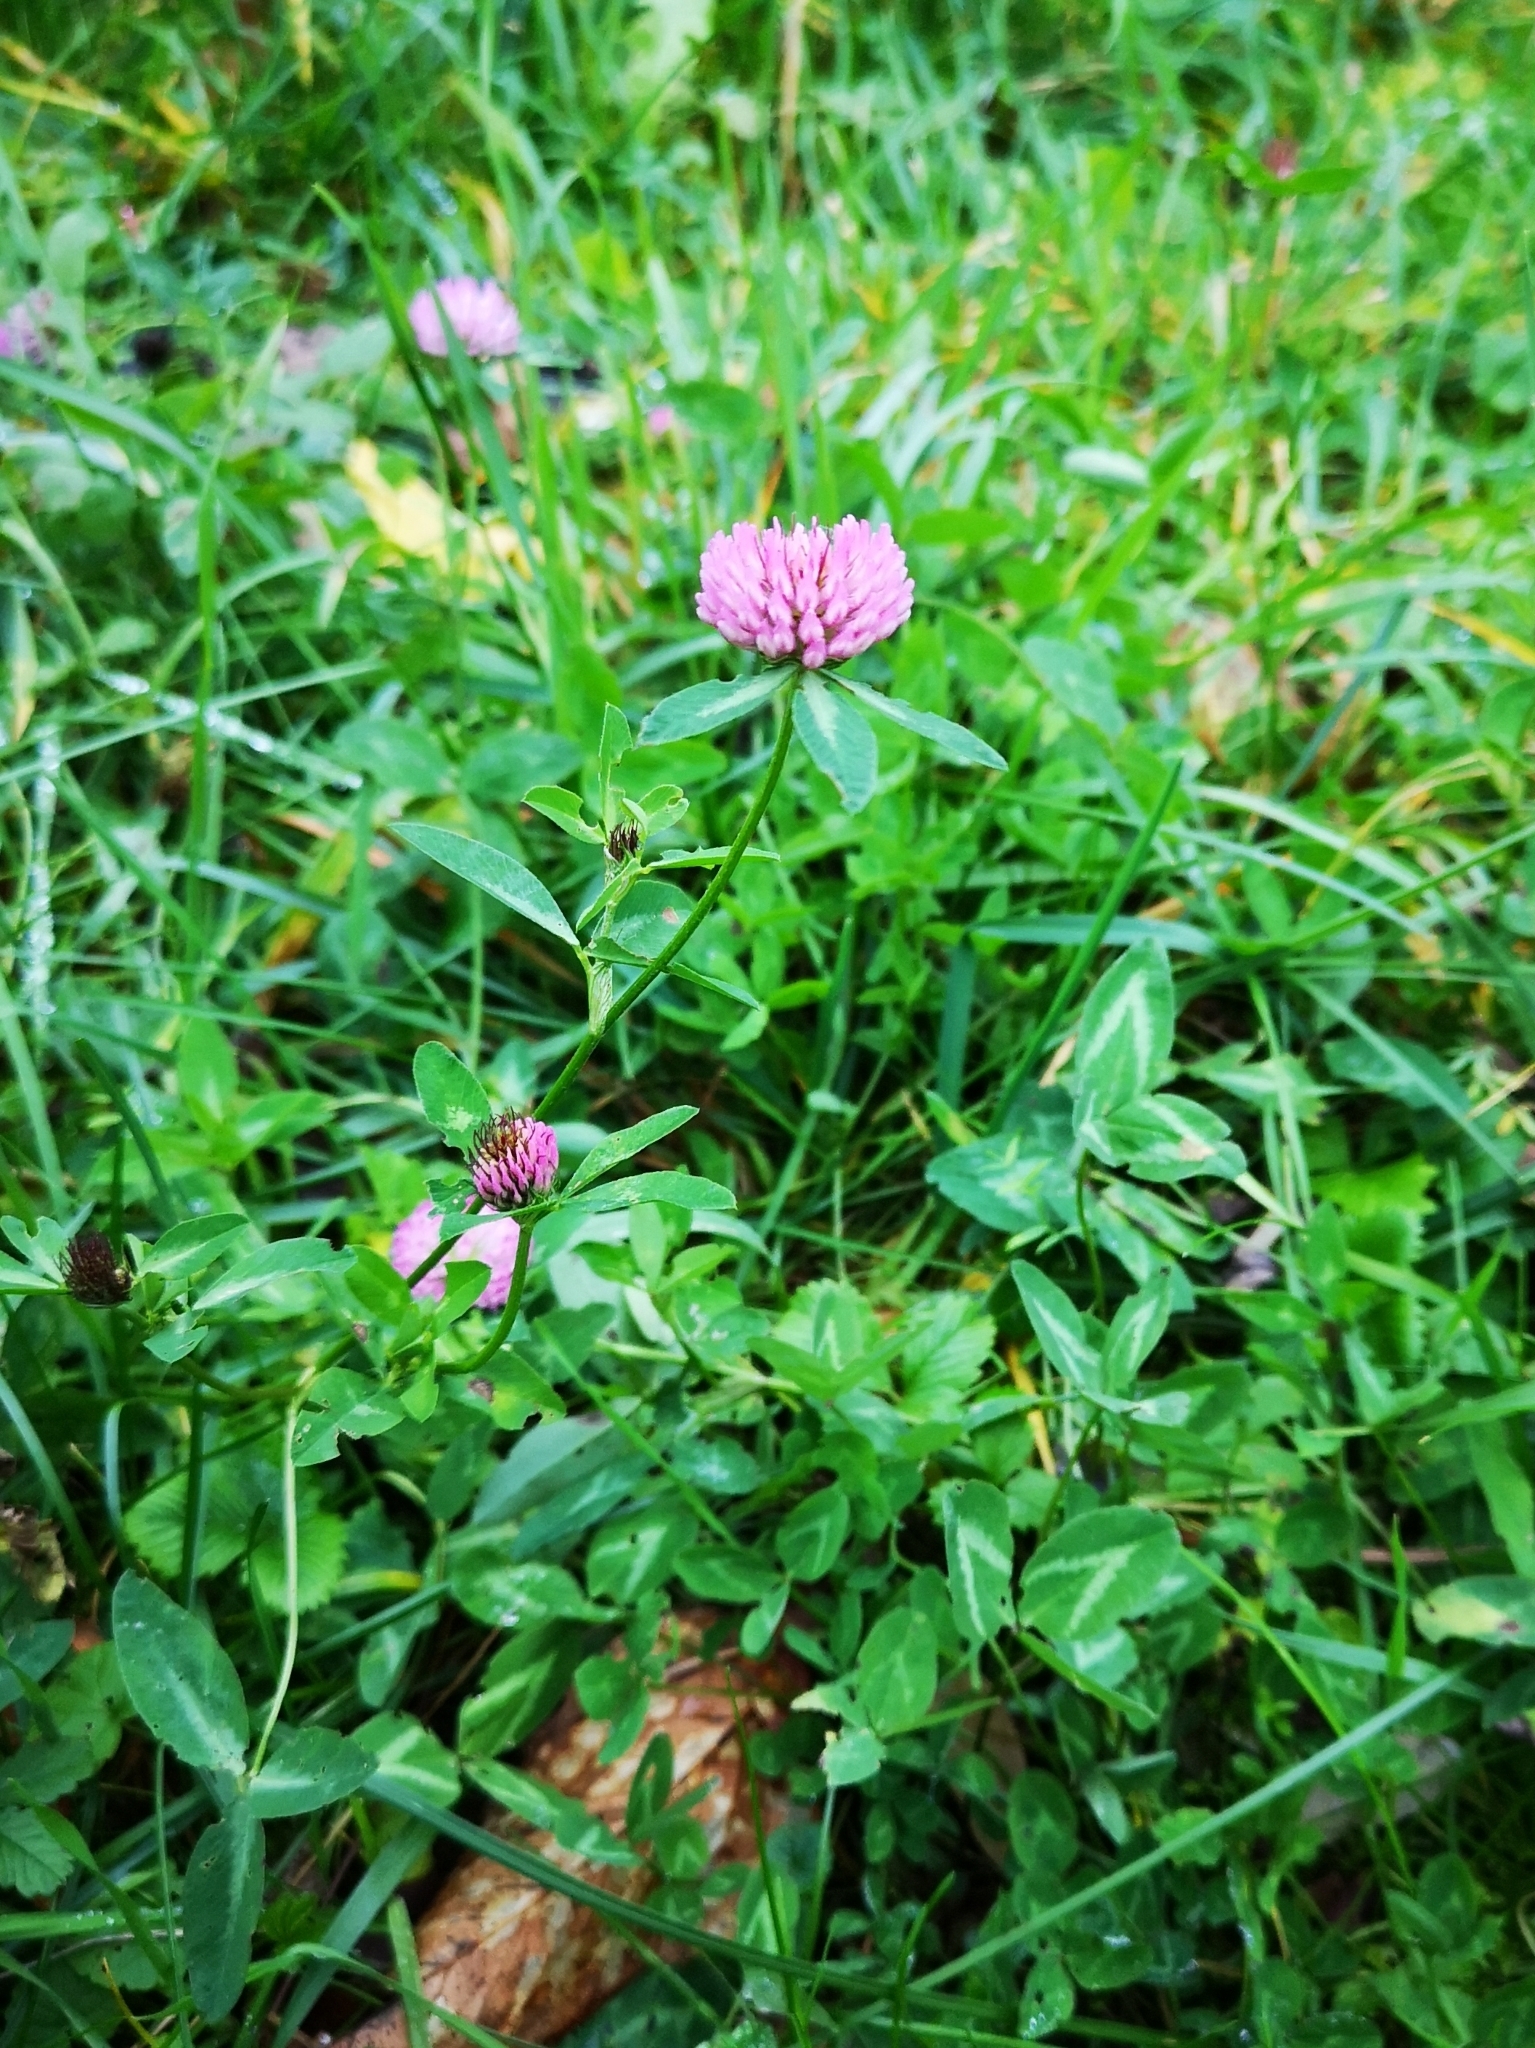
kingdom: Plantae
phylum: Tracheophyta
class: Magnoliopsida
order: Fabales
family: Fabaceae
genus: Trifolium
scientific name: Trifolium pratense
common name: Red clover
